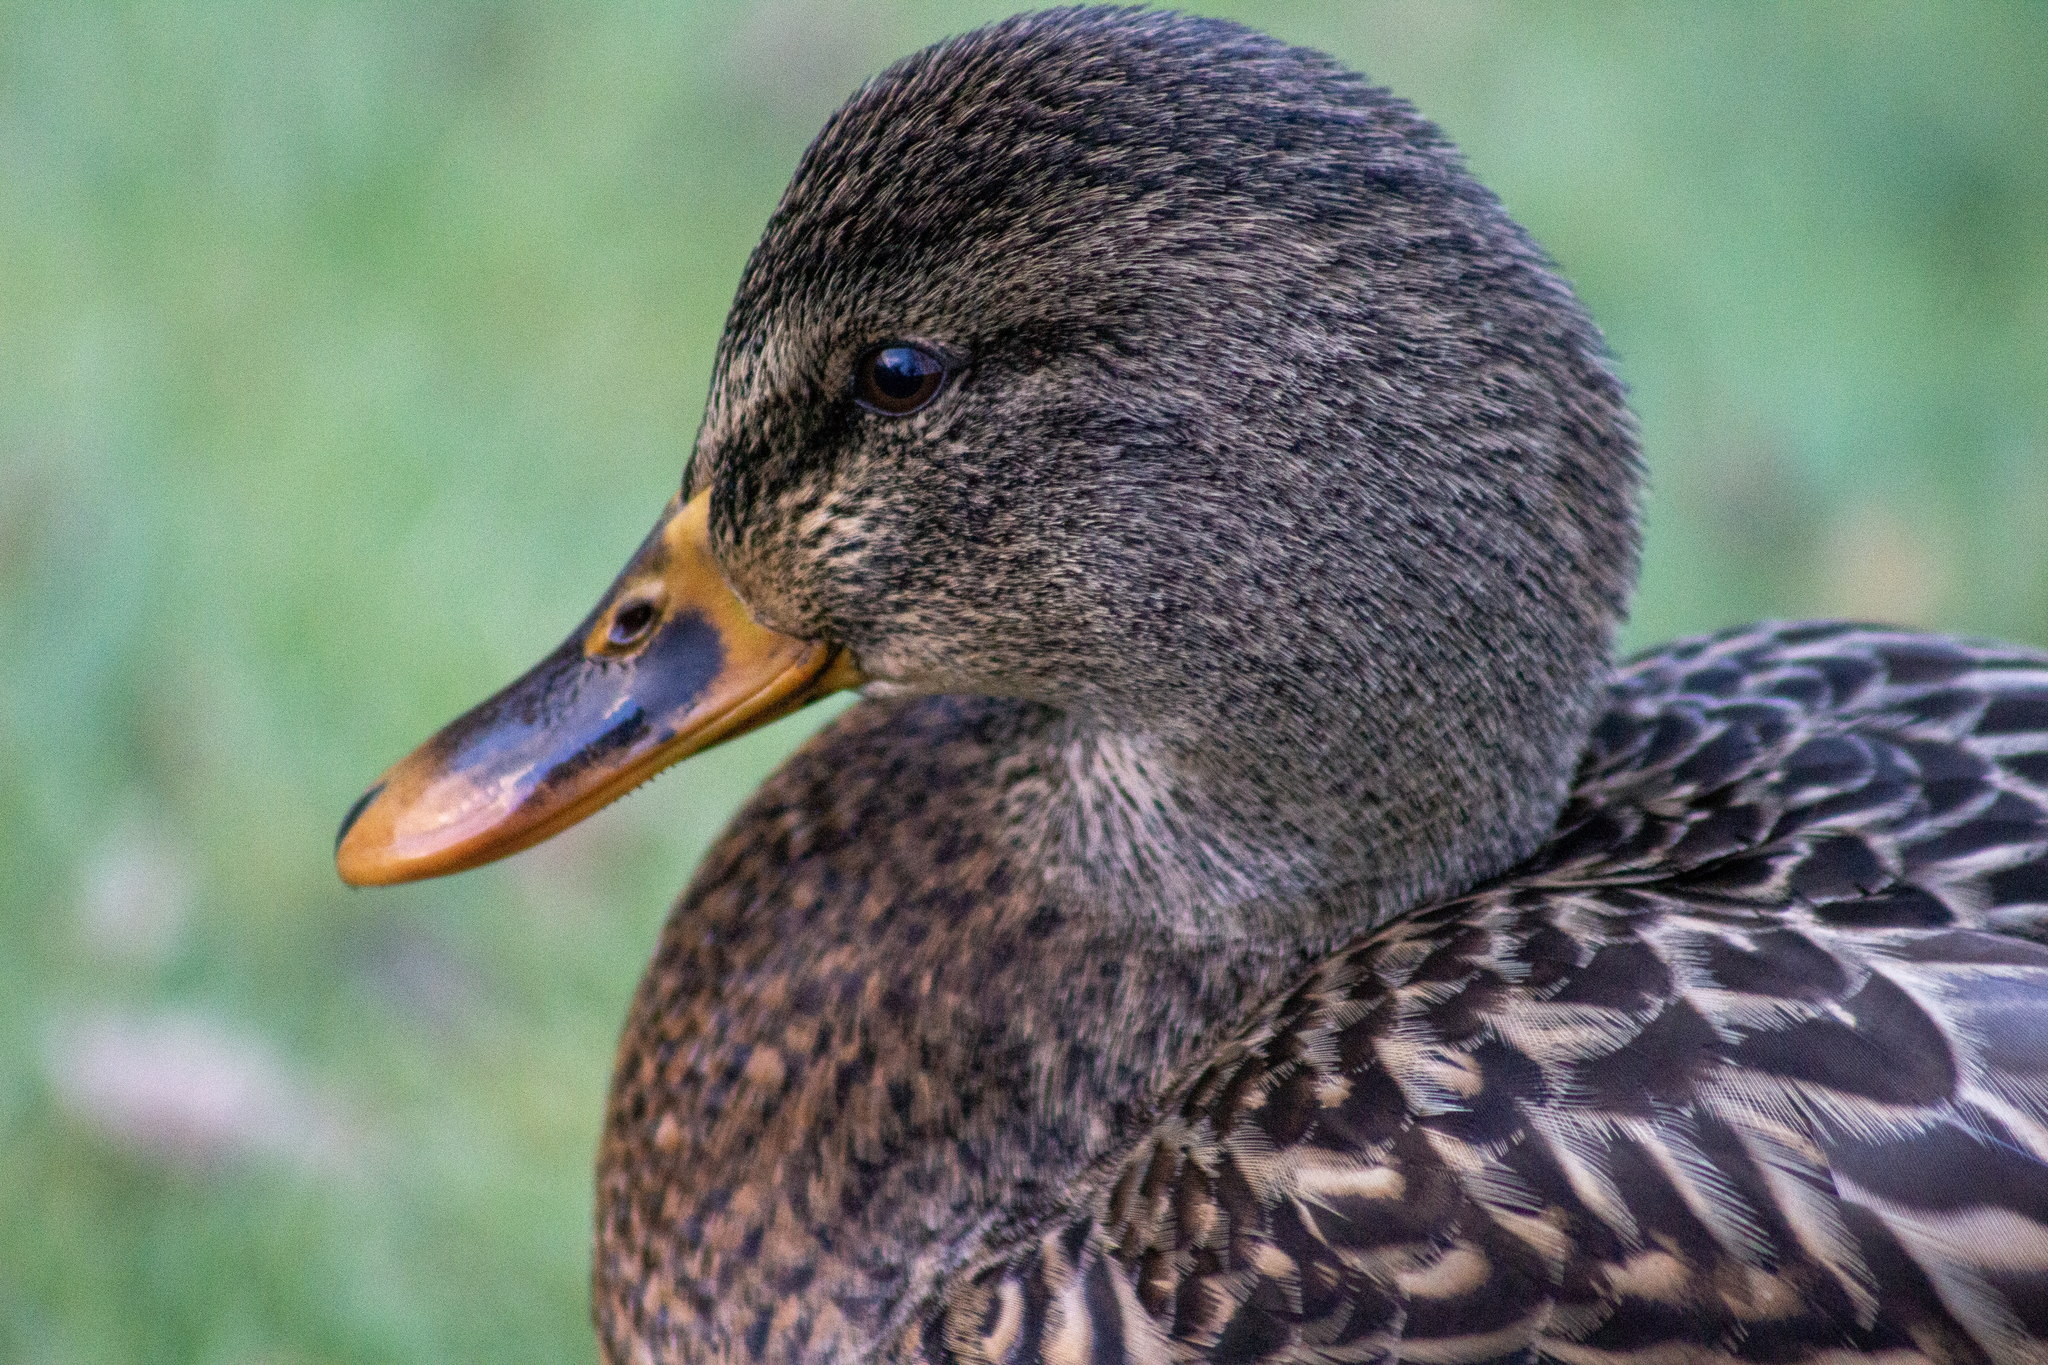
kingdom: Animalia
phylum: Chordata
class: Aves
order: Anseriformes
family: Anatidae
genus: Anas
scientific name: Anas platyrhynchos
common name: Mallard
